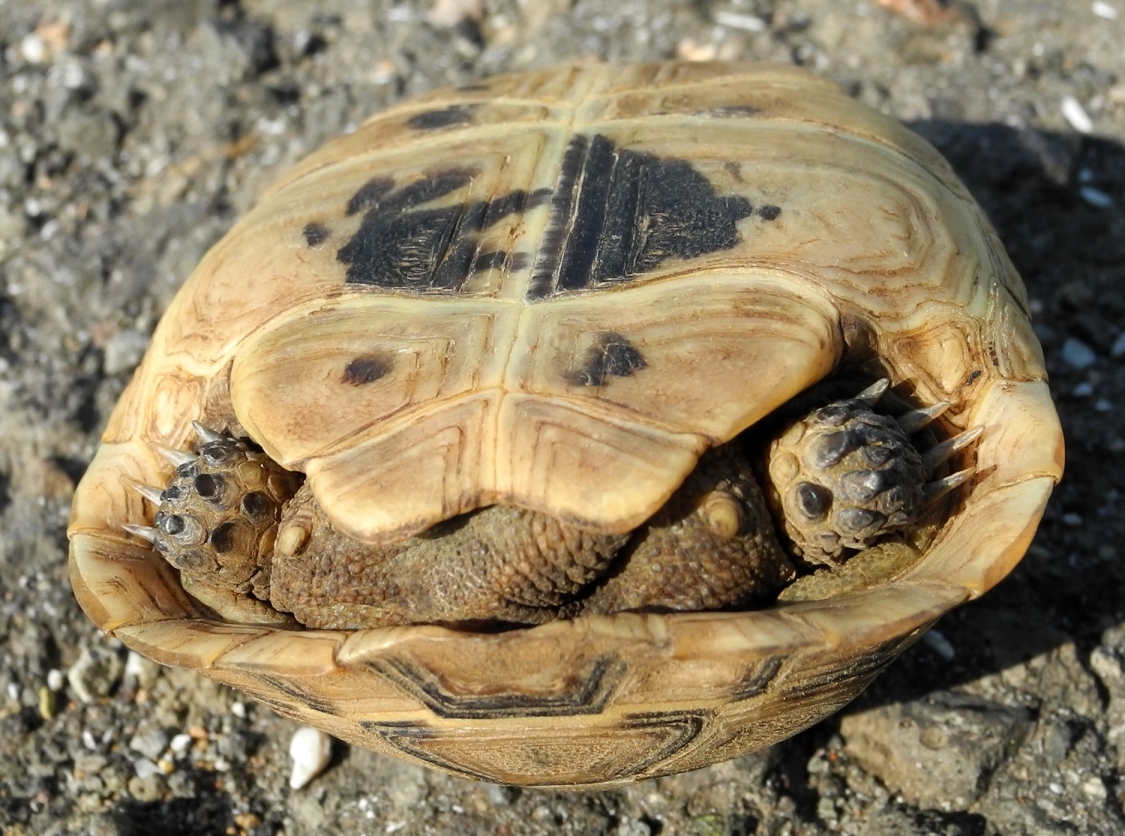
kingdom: Animalia
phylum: Chordata
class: Testudines
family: Testudinidae
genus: Testudo
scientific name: Testudo graeca
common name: Common tortoise
